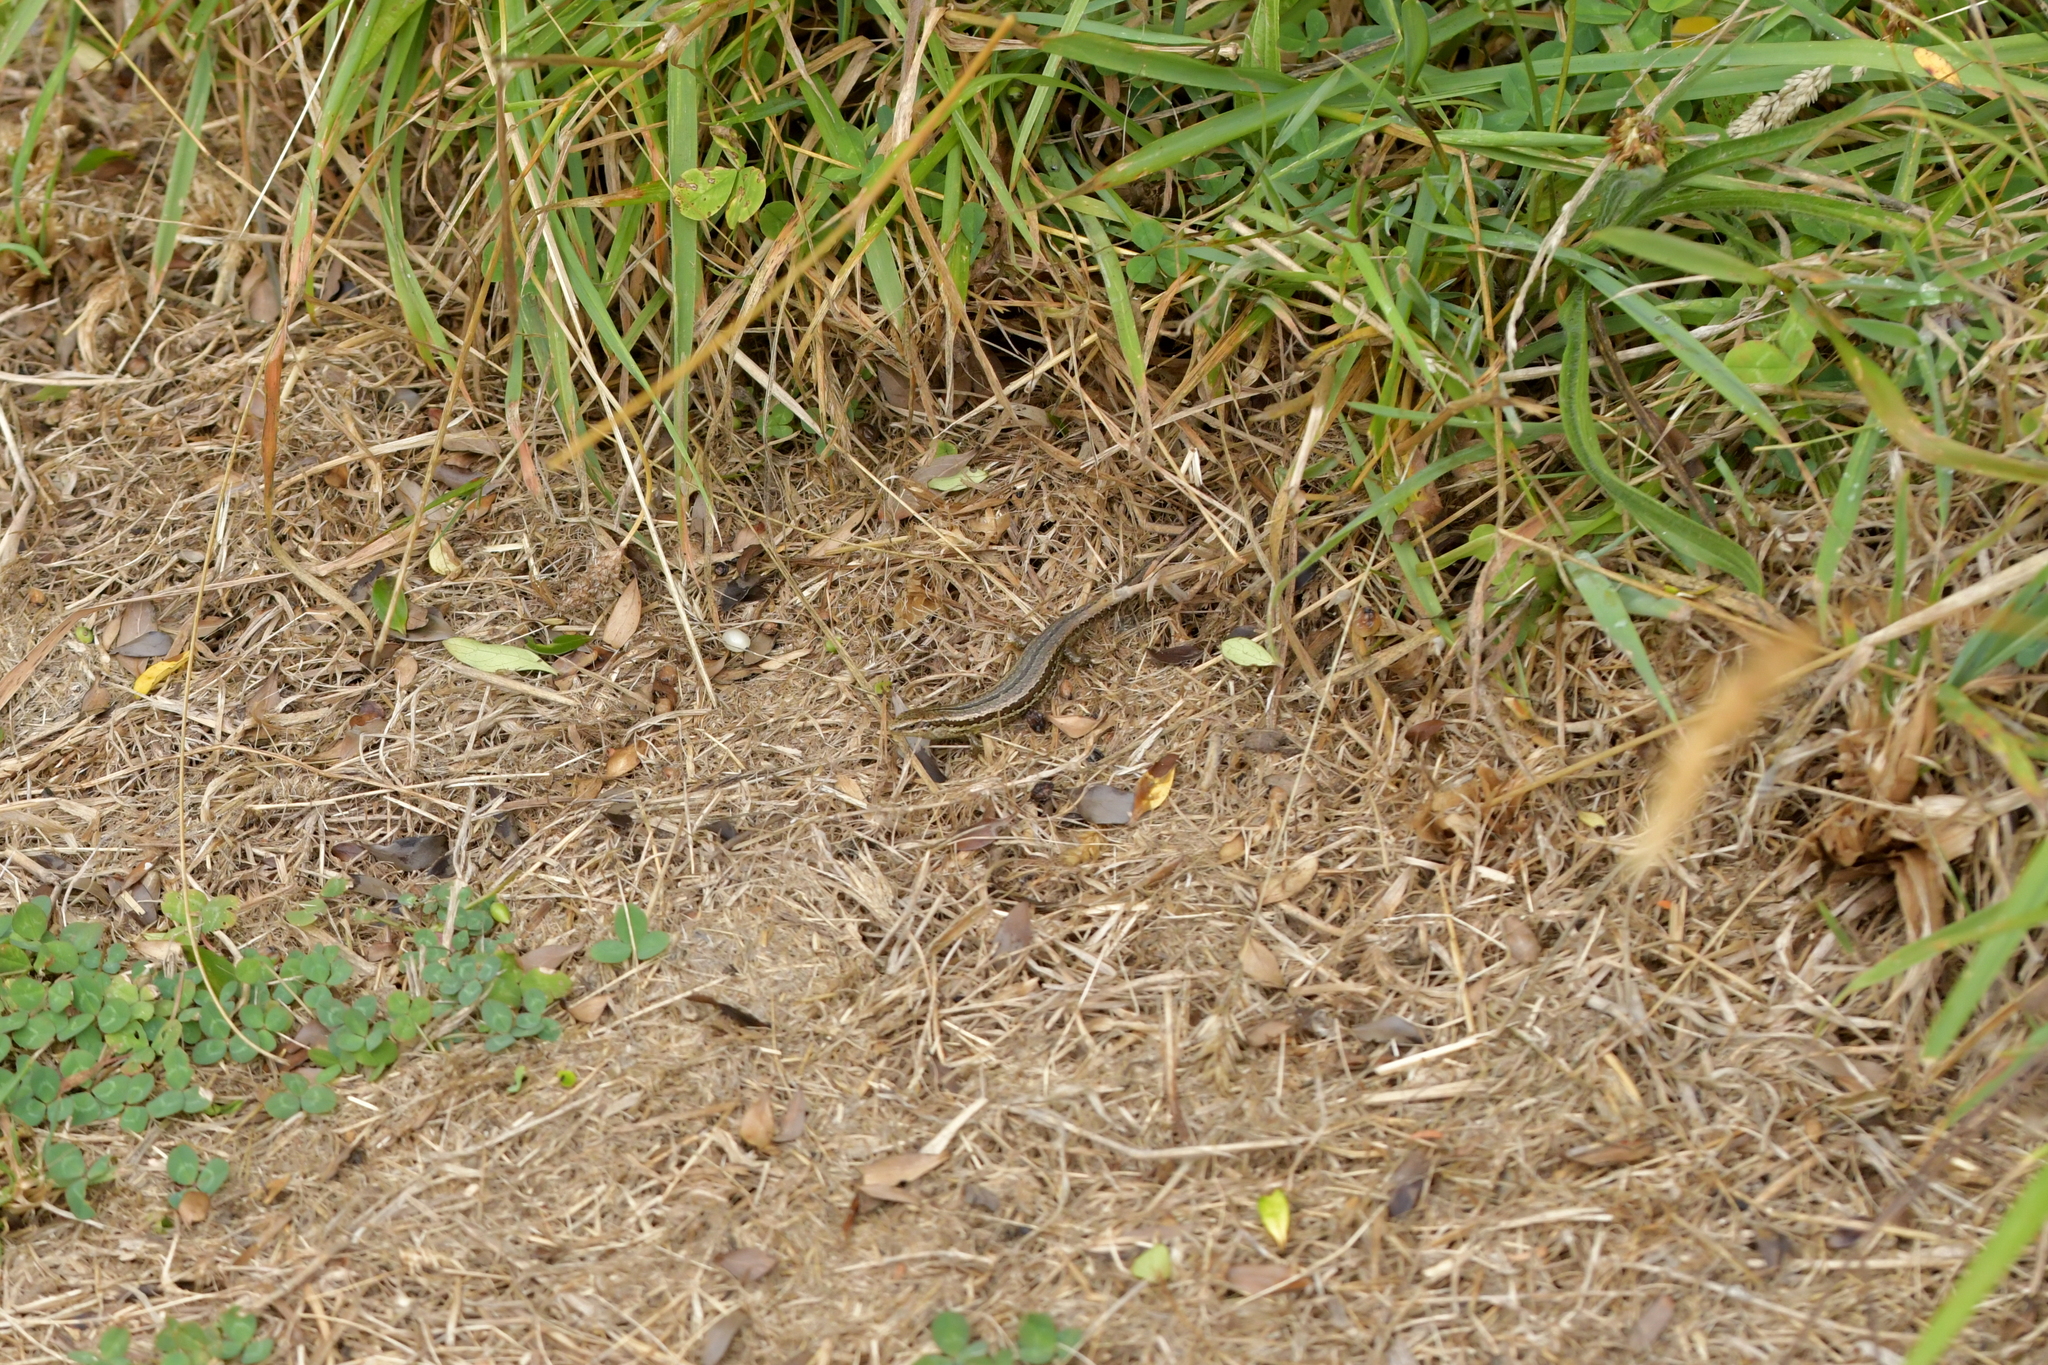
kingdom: Animalia
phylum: Chordata
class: Squamata
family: Scincidae
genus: Oligosoma
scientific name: Oligosoma polychroma
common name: Common new zealand skink
